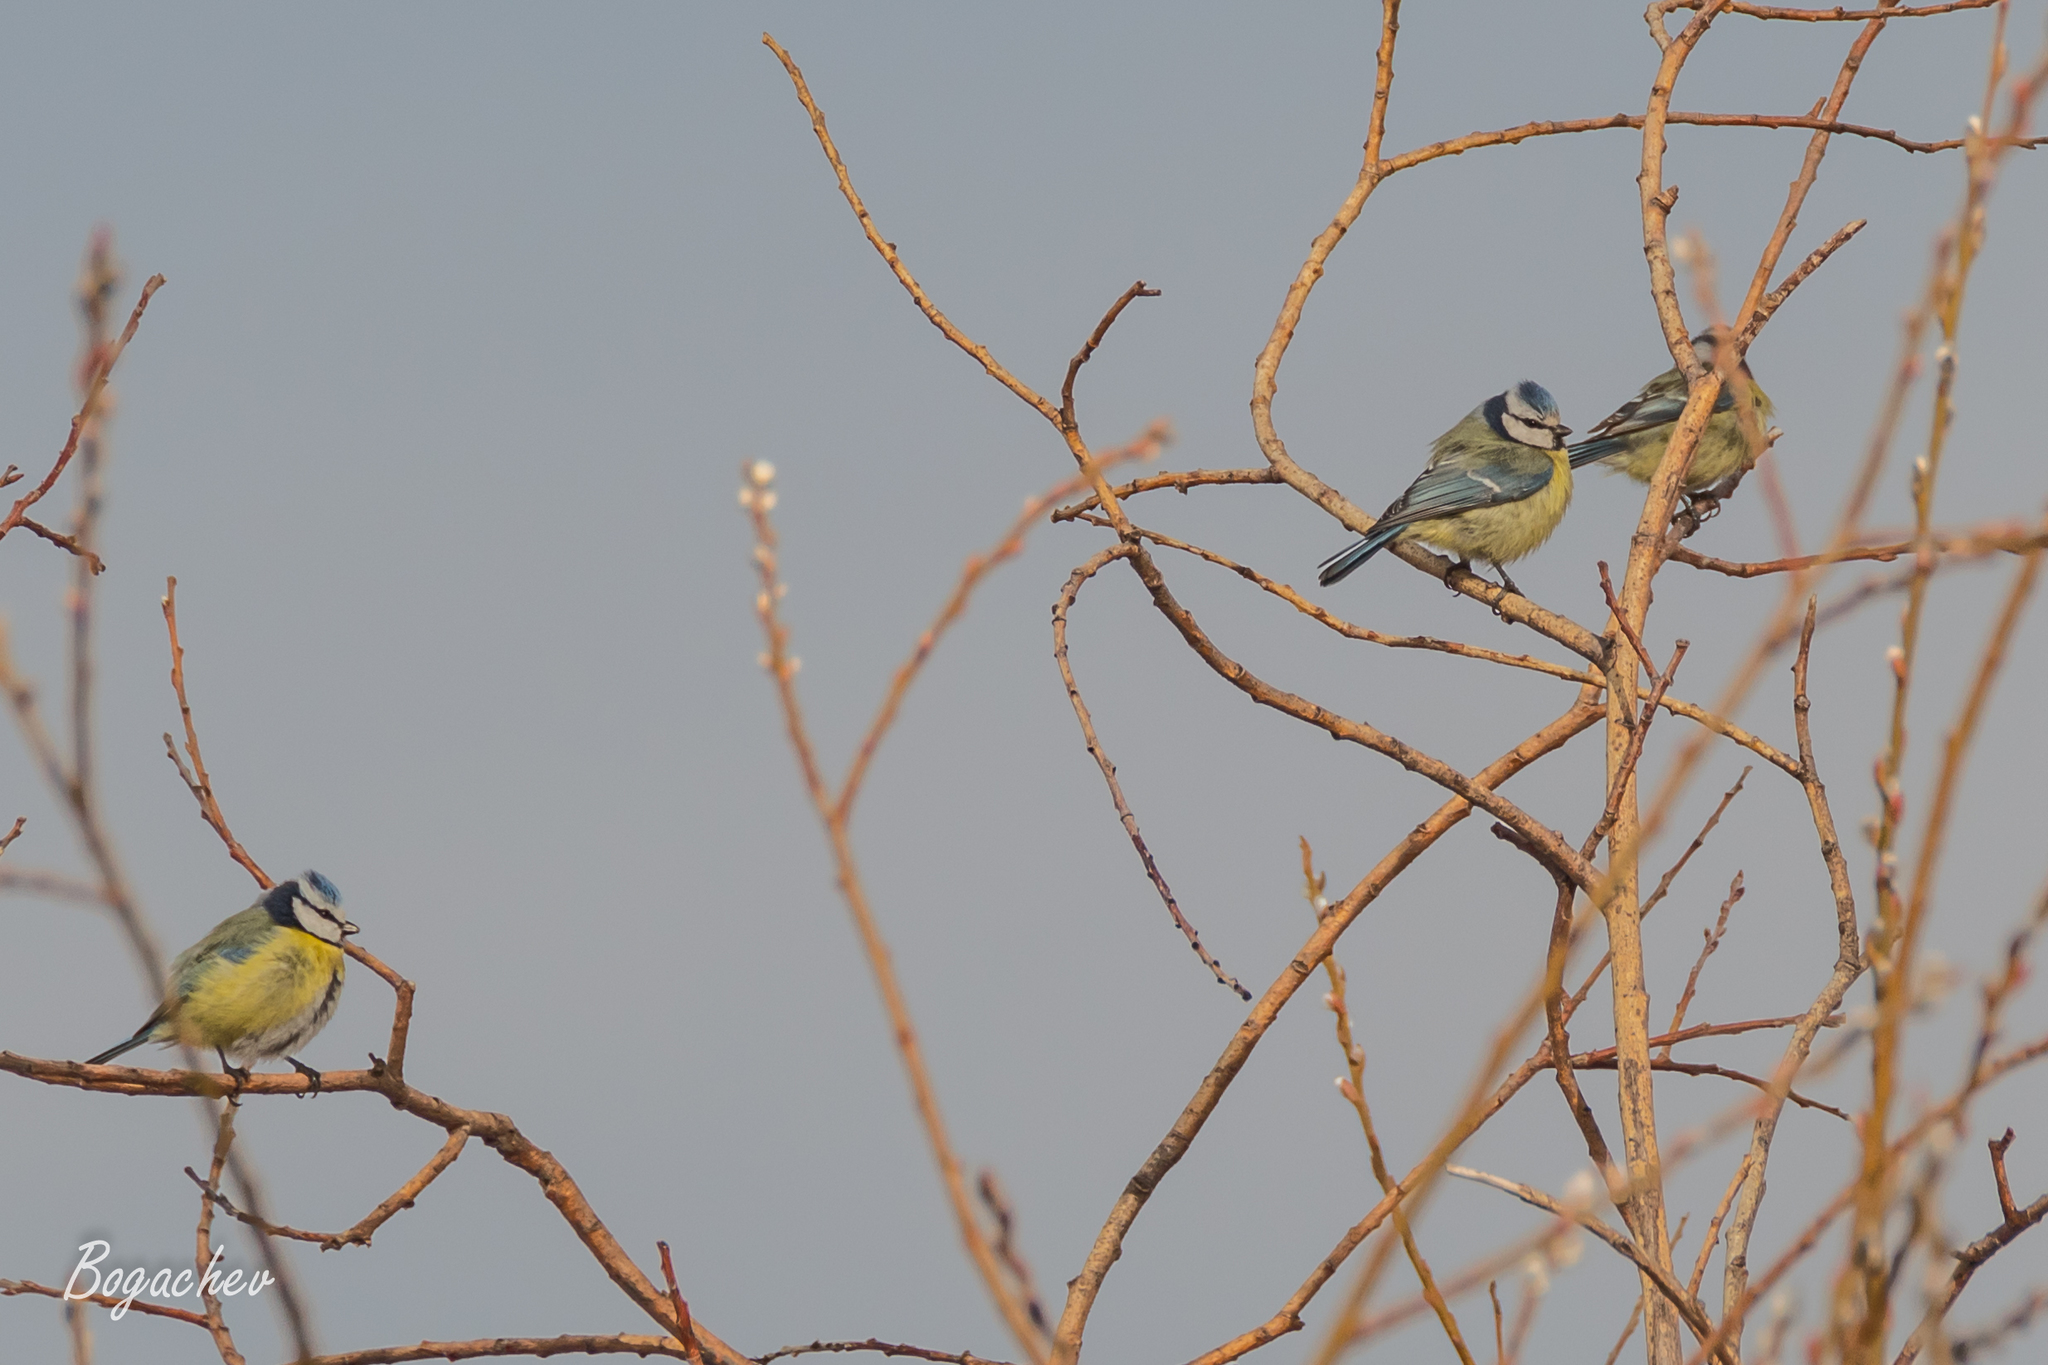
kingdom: Animalia
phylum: Chordata
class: Aves
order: Passeriformes
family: Paridae
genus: Cyanistes
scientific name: Cyanistes caeruleus
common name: Eurasian blue tit
